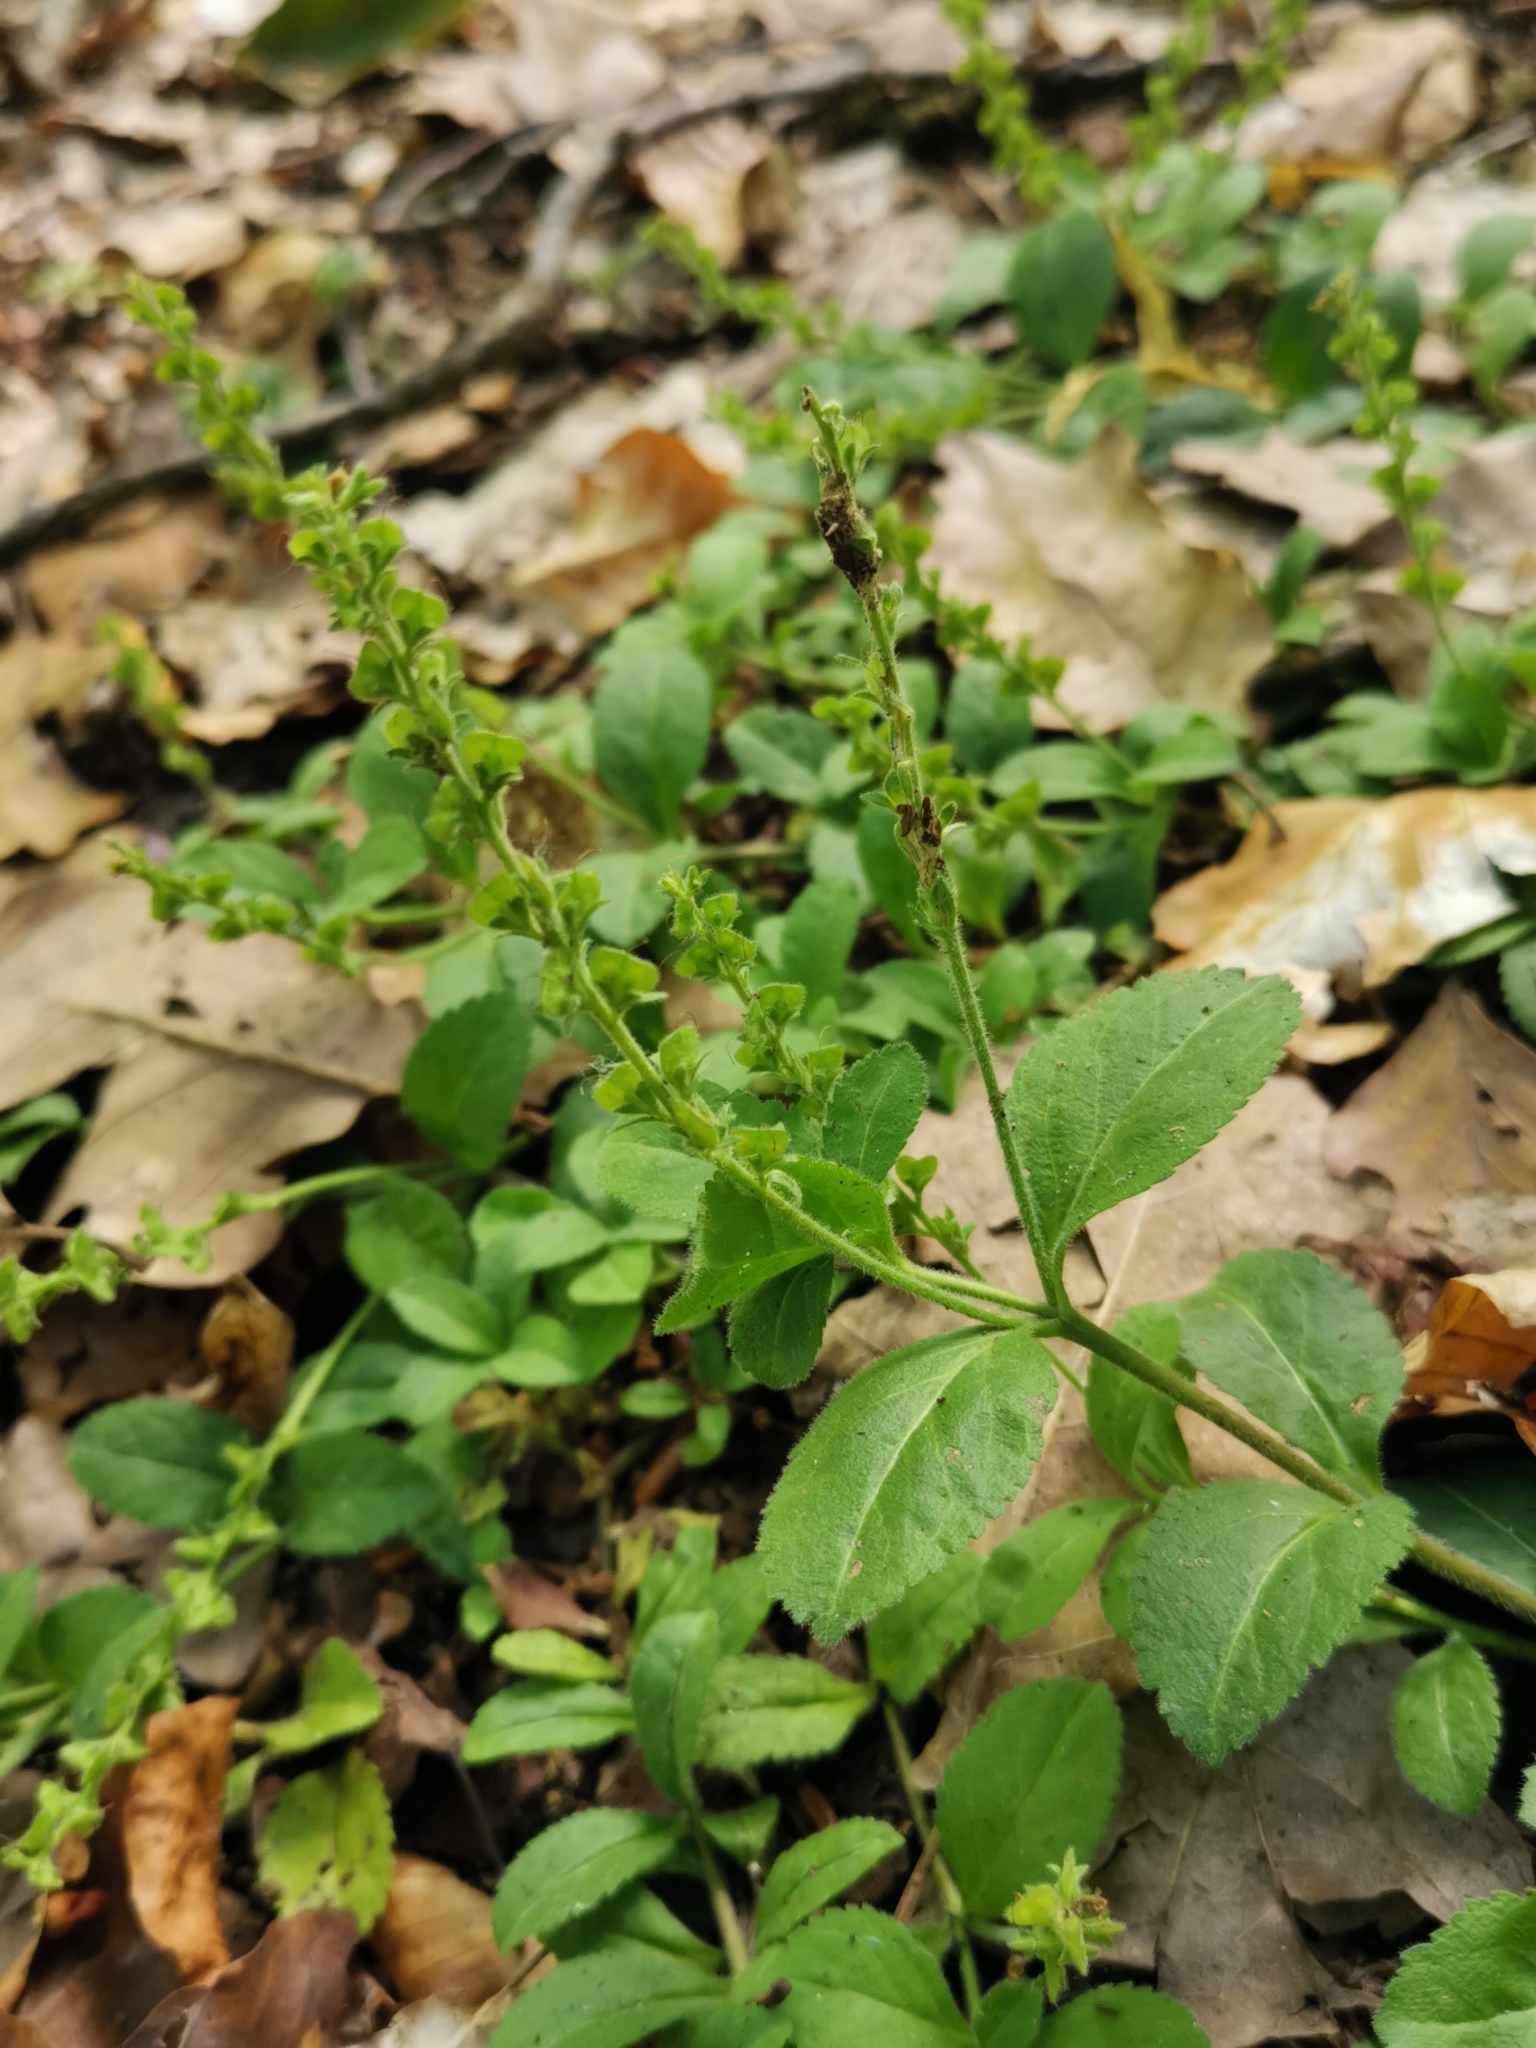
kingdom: Plantae
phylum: Tracheophyta
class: Magnoliopsida
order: Lamiales
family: Plantaginaceae
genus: Veronica
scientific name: Veronica officinalis
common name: Common speedwell
